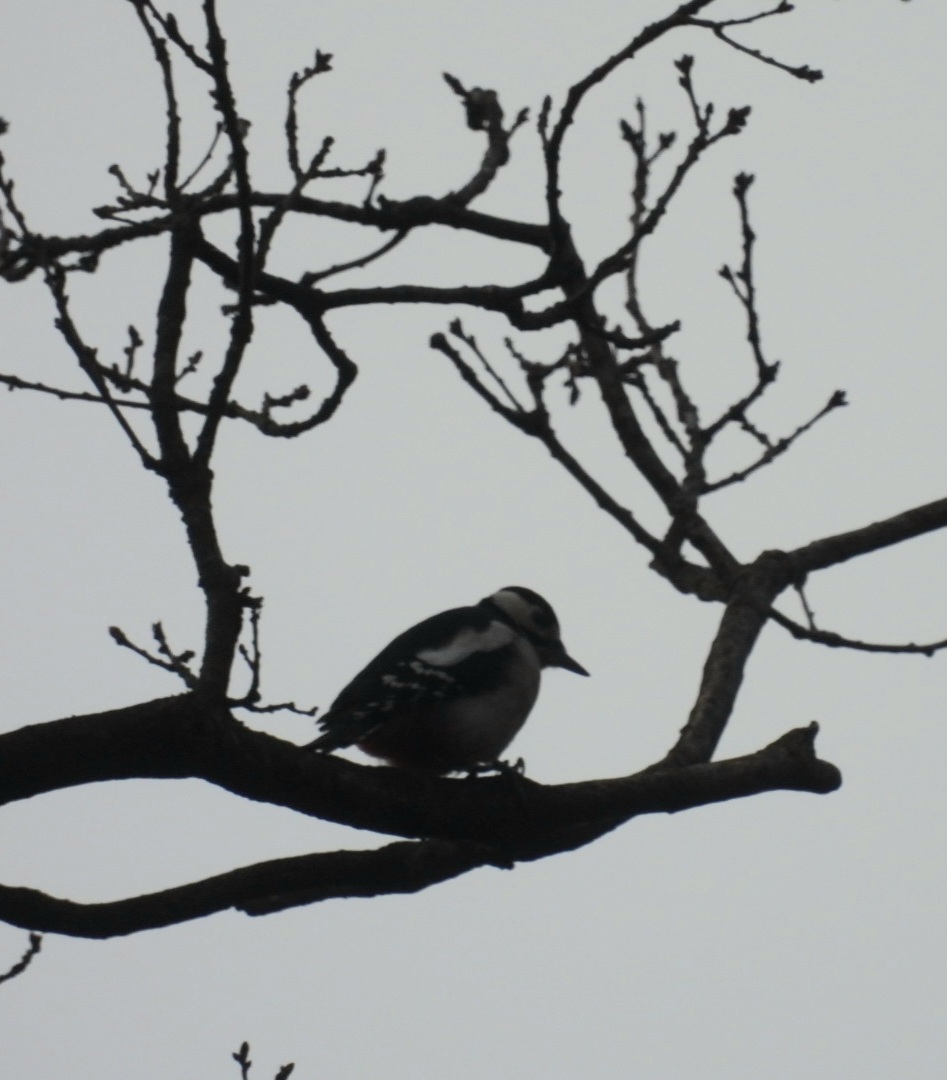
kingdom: Animalia
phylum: Chordata
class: Aves
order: Piciformes
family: Picidae
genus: Dendrocopos
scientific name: Dendrocopos major
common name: Great spotted woodpecker
